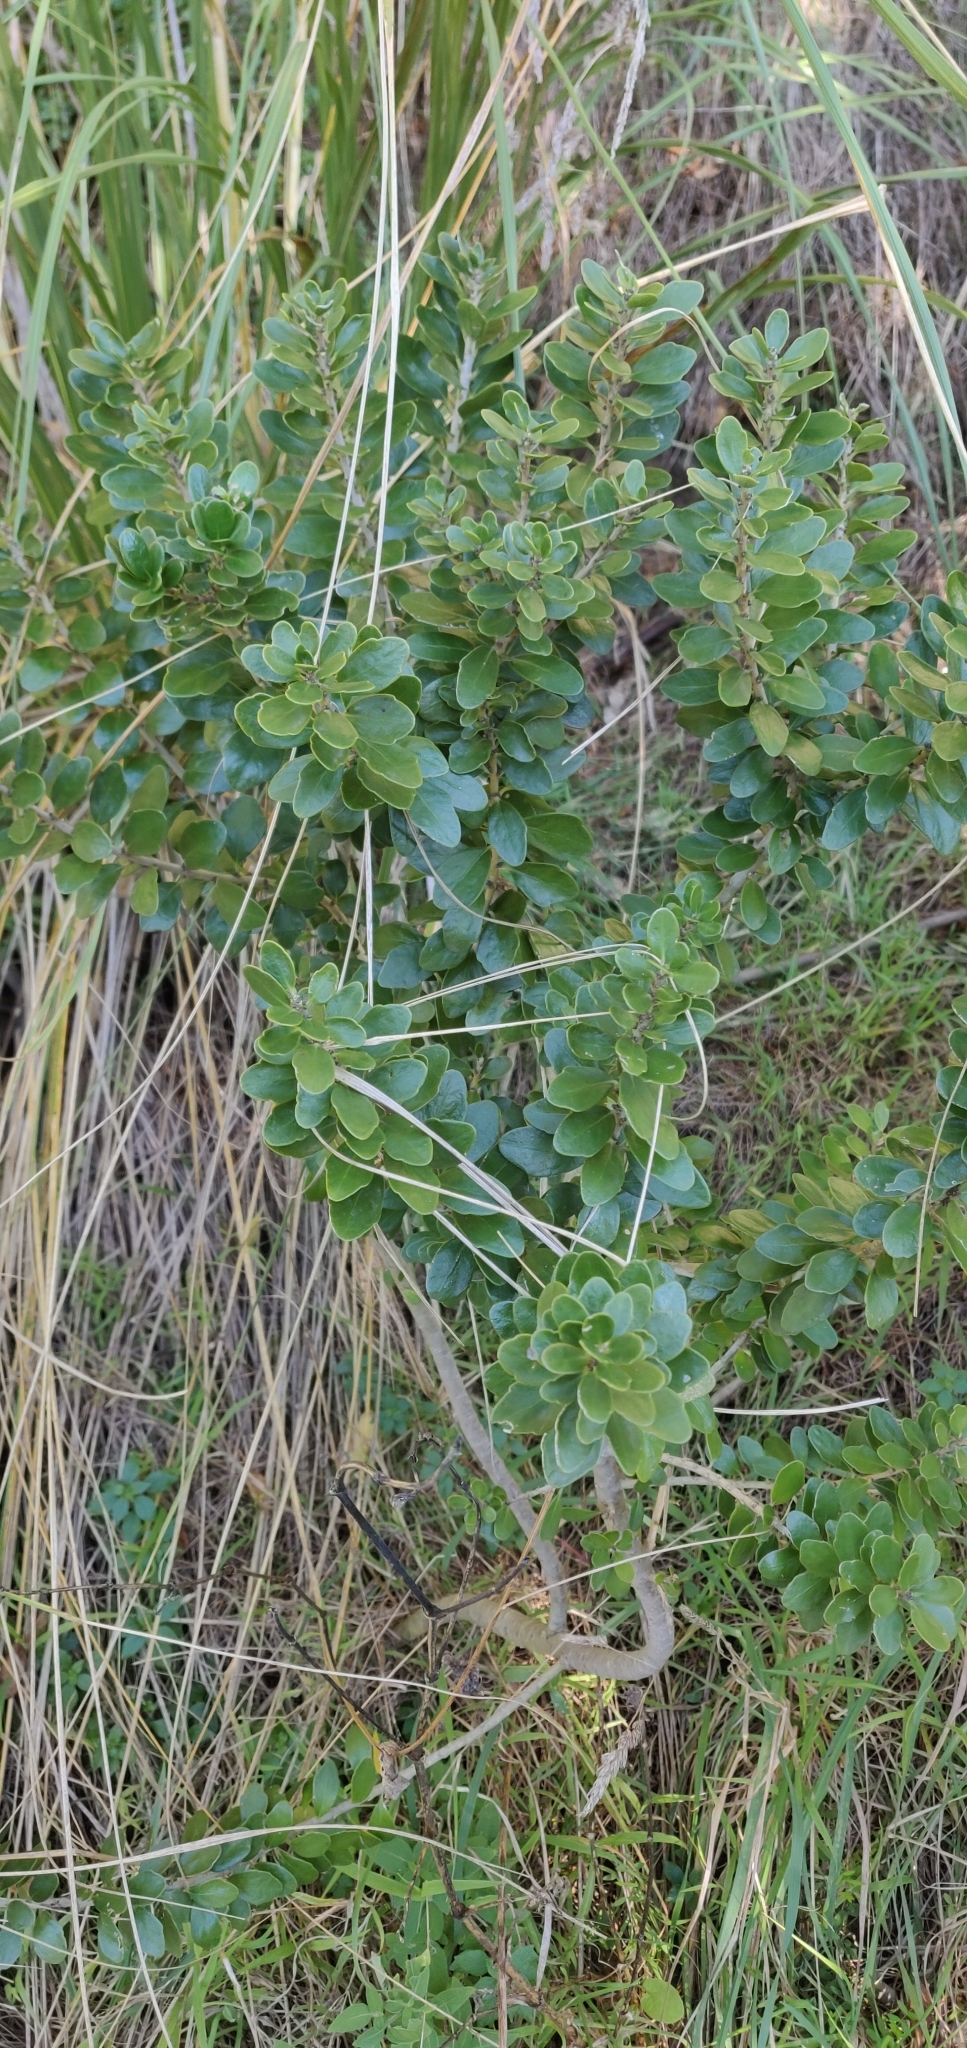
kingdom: Plantae
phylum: Tracheophyta
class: Magnoliopsida
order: Malpighiales
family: Violaceae
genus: Melicytus
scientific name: Melicytus orarius
